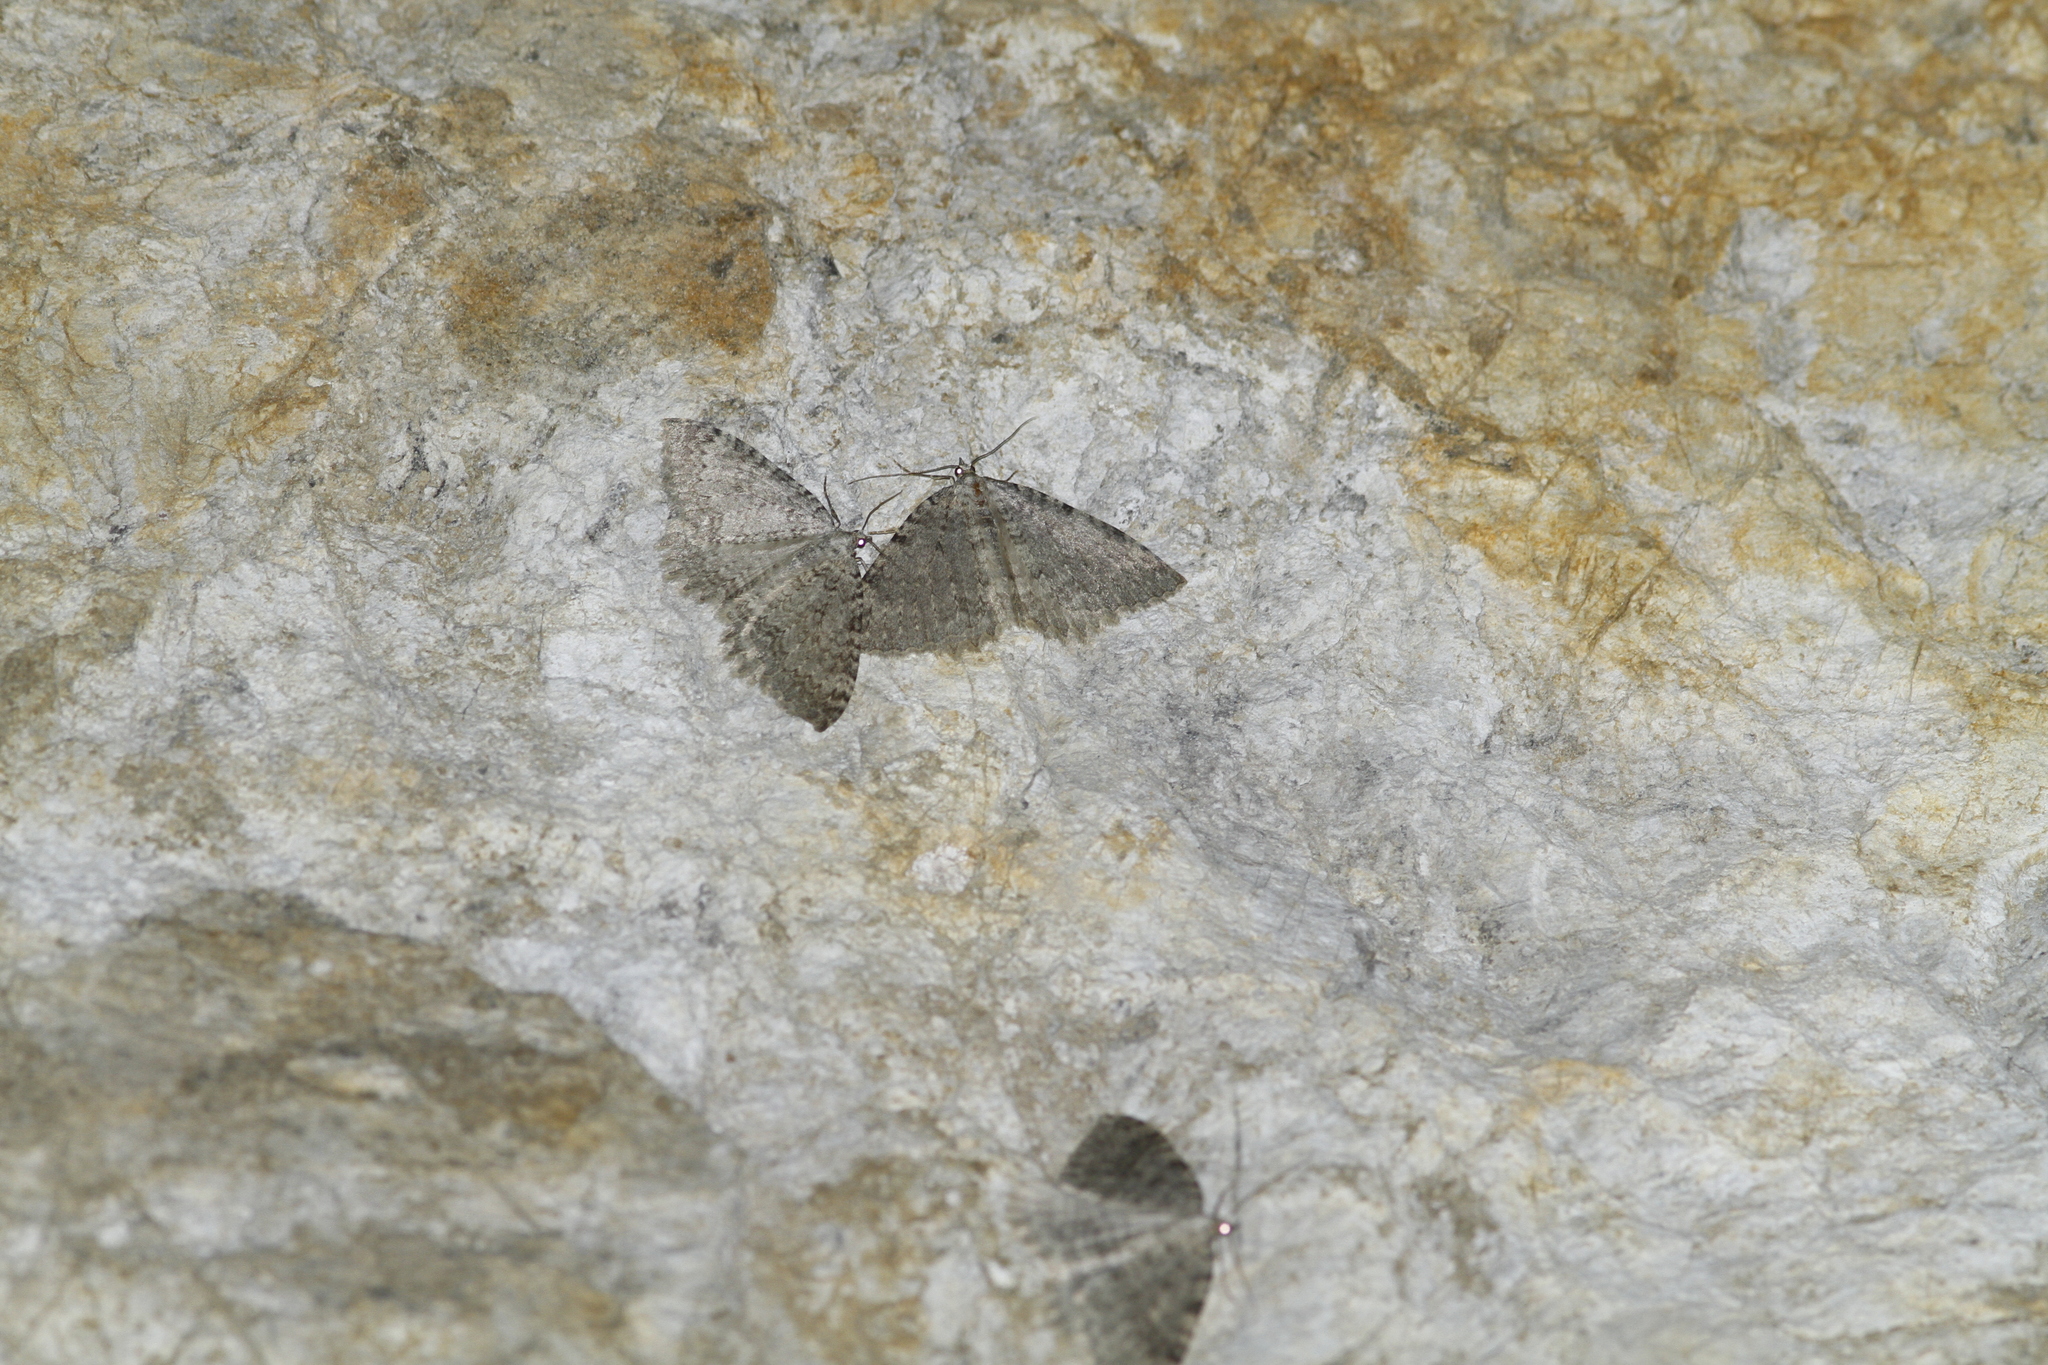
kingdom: Animalia
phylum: Arthropoda
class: Insecta
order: Lepidoptera
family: Geometridae
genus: Triphosa
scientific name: Triphosa sabaudiata
